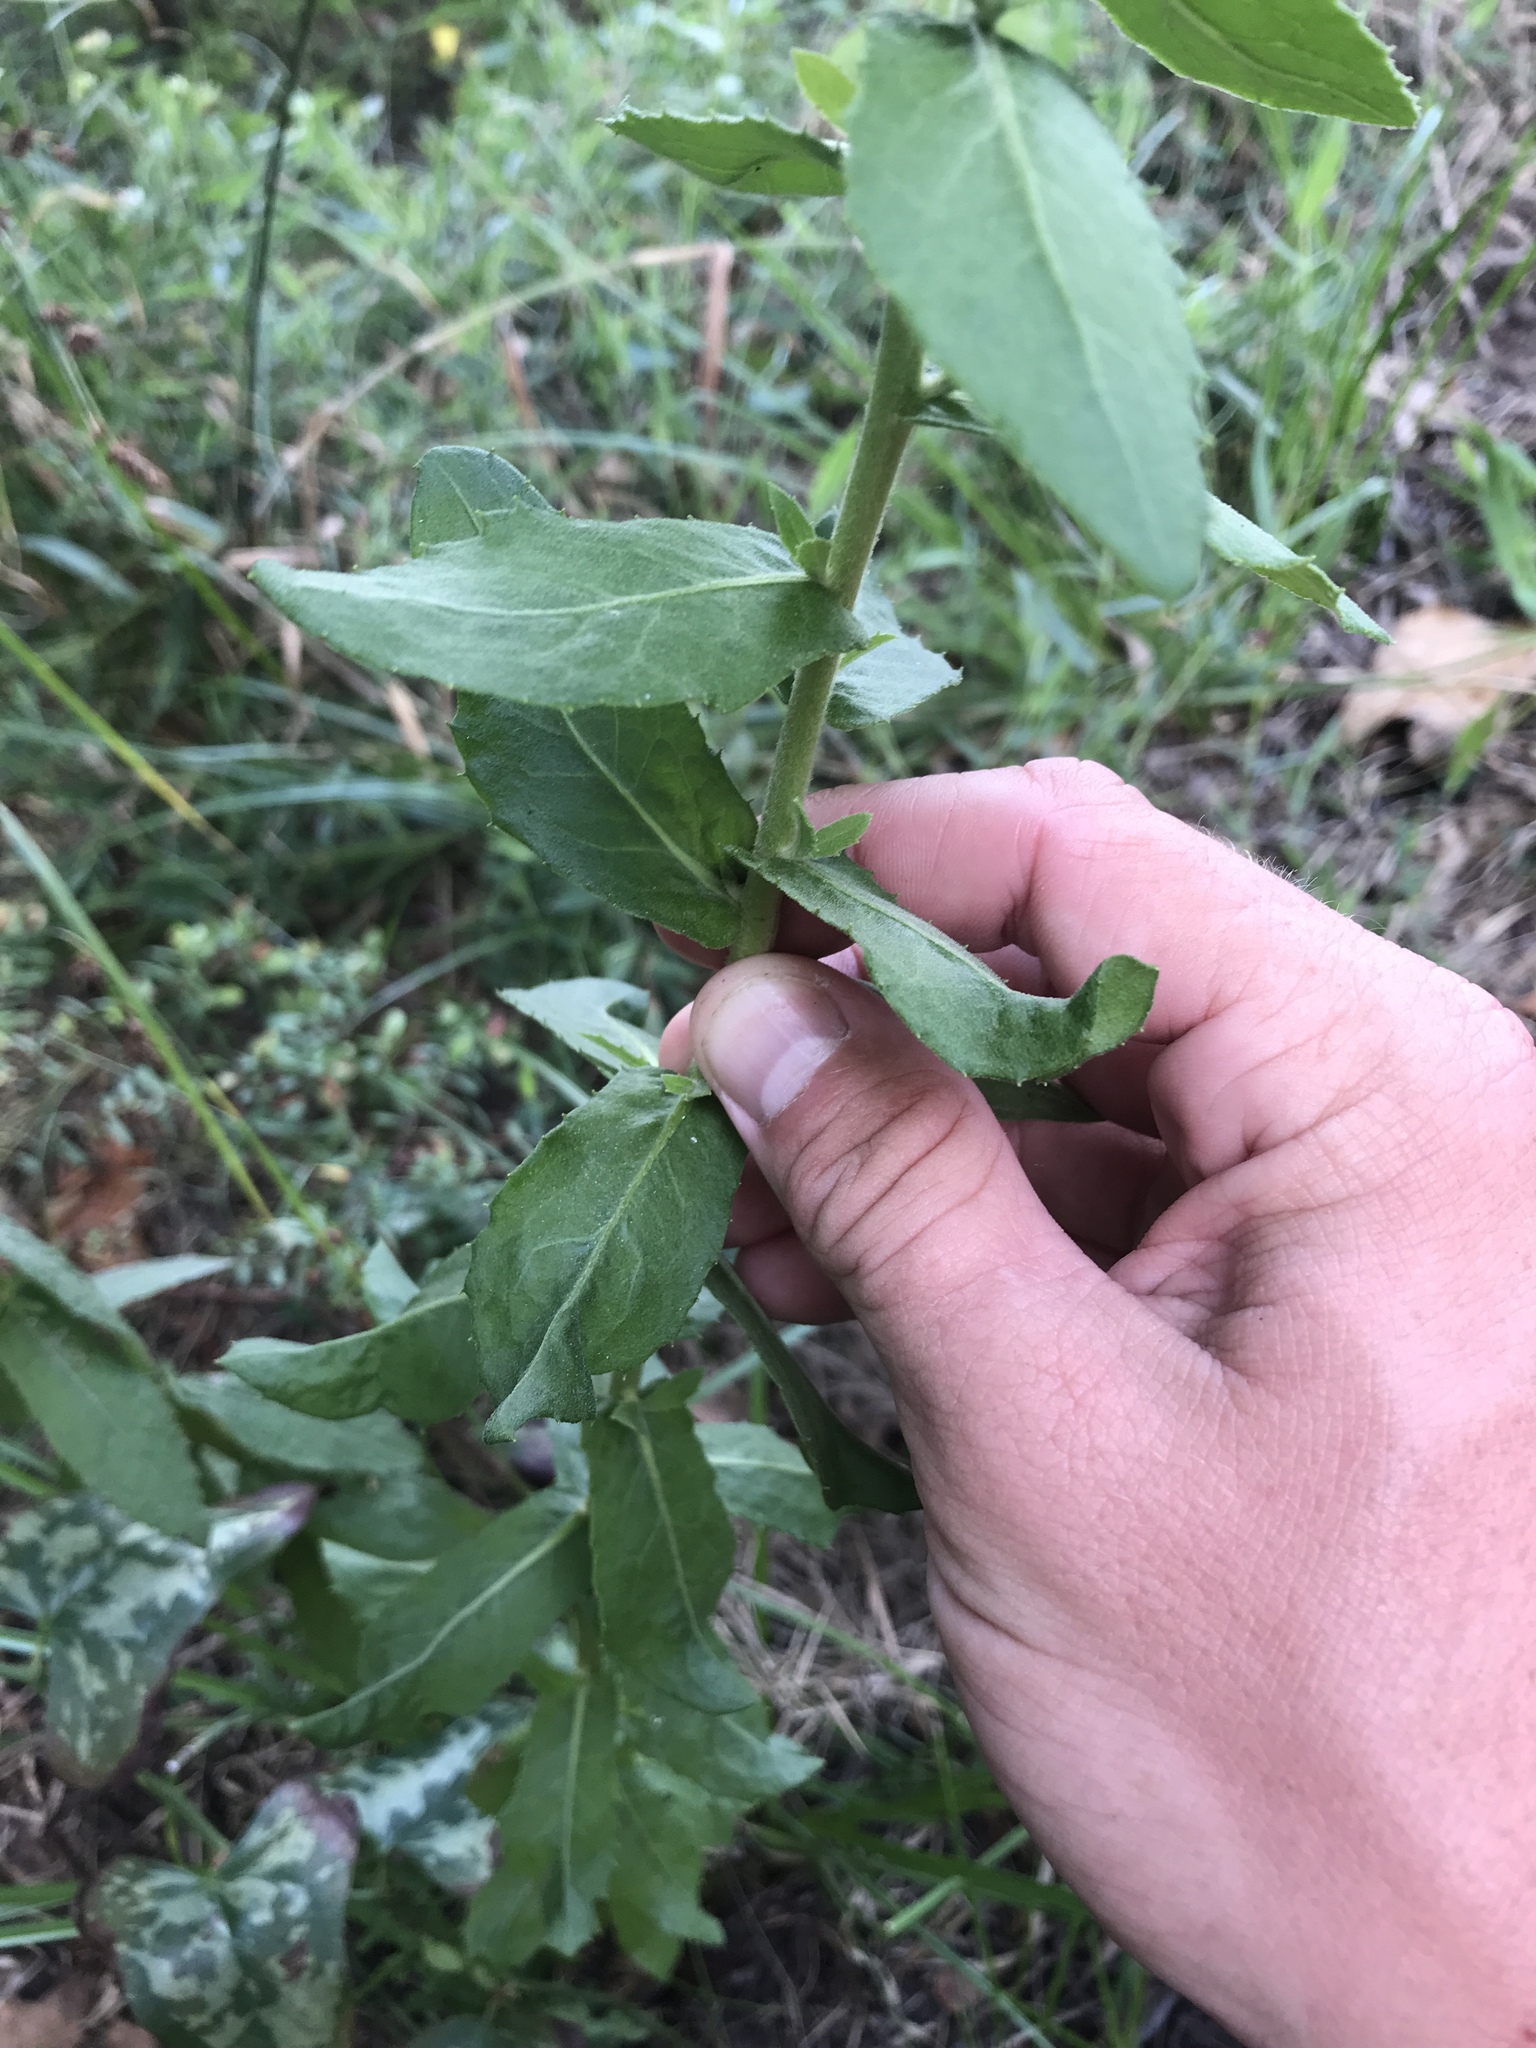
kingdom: Plantae
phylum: Tracheophyta
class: Magnoliopsida
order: Asterales
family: Asteraceae
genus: Pluchea
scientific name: Pluchea foetida
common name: Stinking camphorweed
